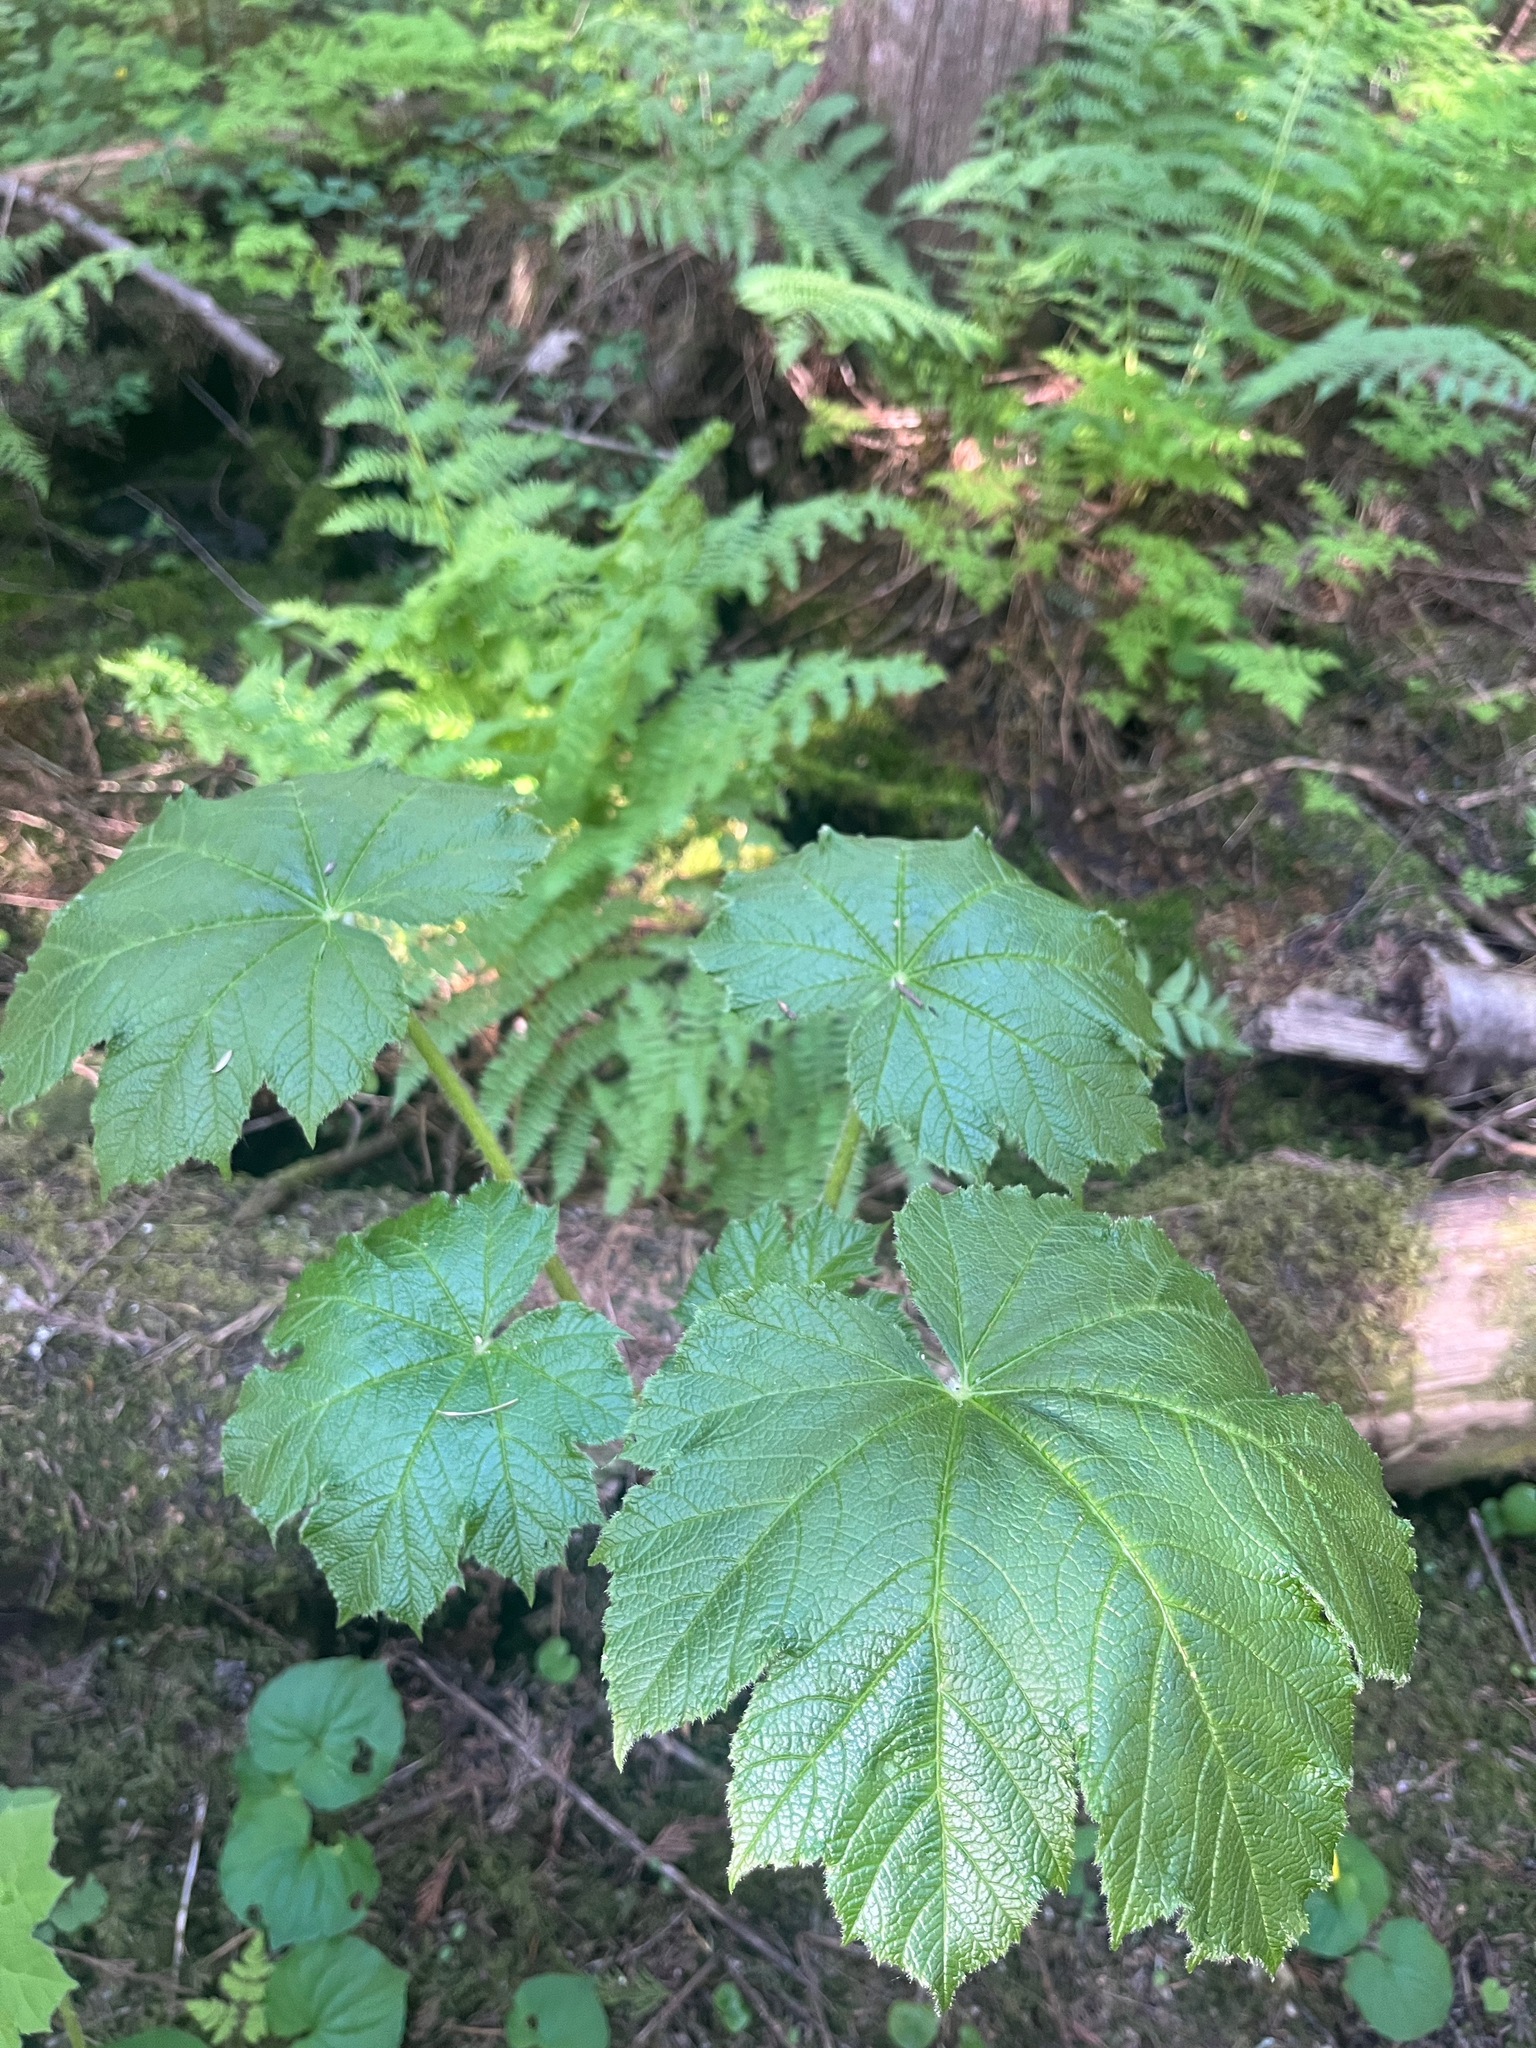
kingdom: Plantae
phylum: Tracheophyta
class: Magnoliopsida
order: Apiales
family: Araliaceae
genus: Oplopanax
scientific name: Oplopanax horridus
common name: Devil's walking-stick
